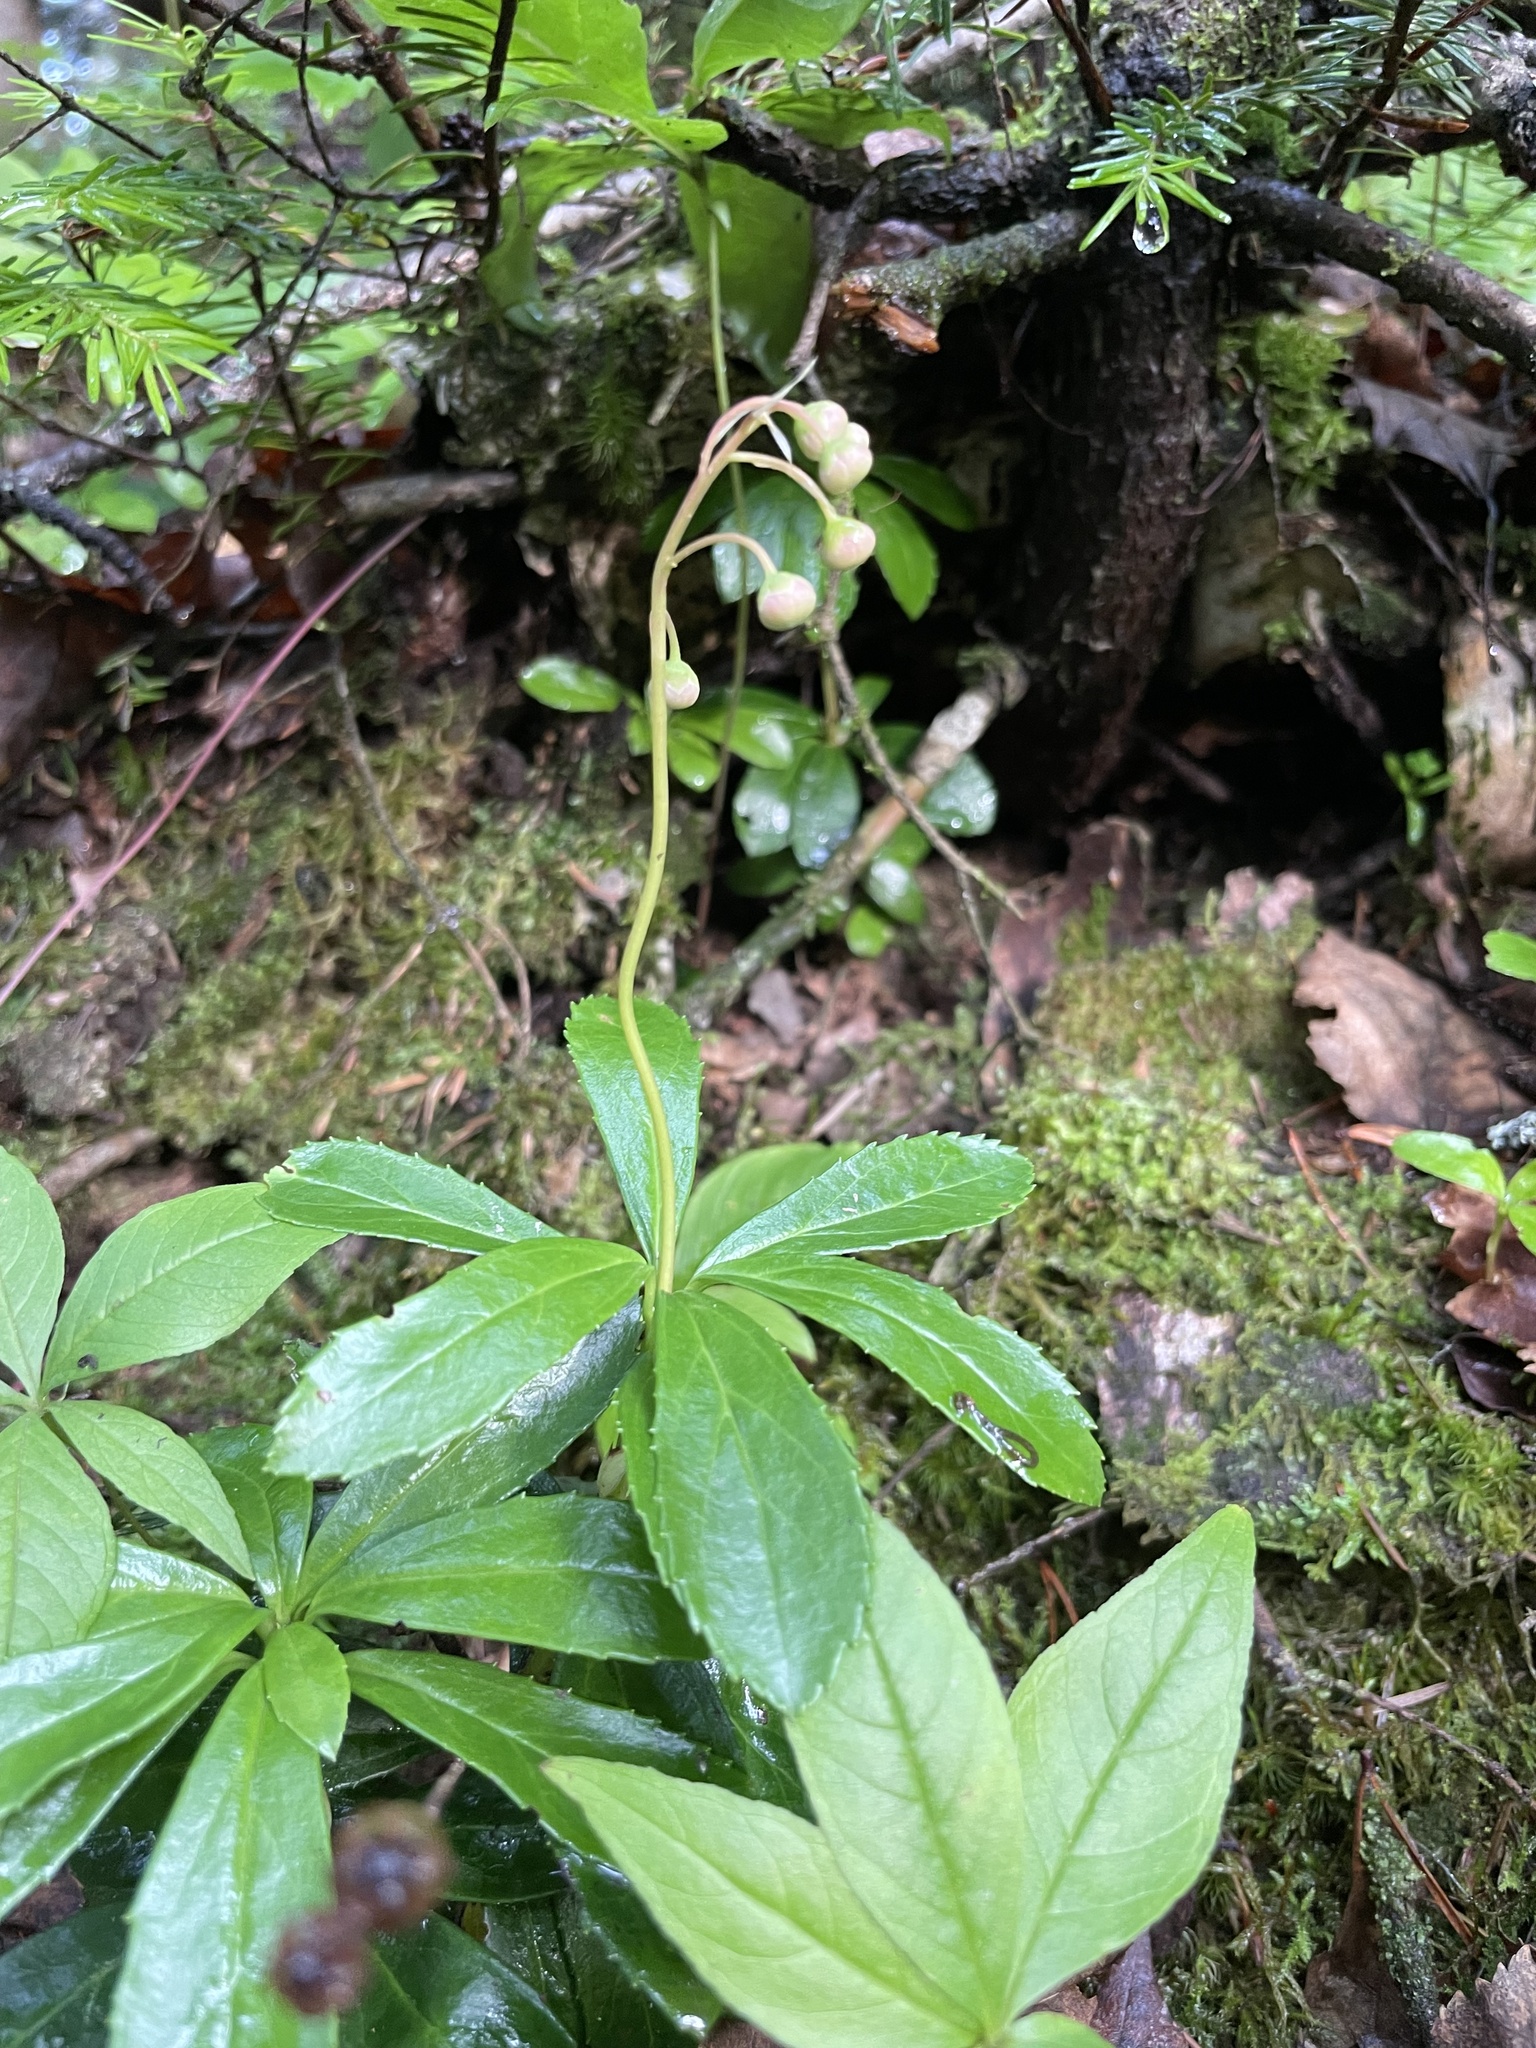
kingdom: Plantae
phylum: Tracheophyta
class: Magnoliopsida
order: Ericales
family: Ericaceae
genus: Chimaphila
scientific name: Chimaphila umbellata
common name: Pipsissewa
